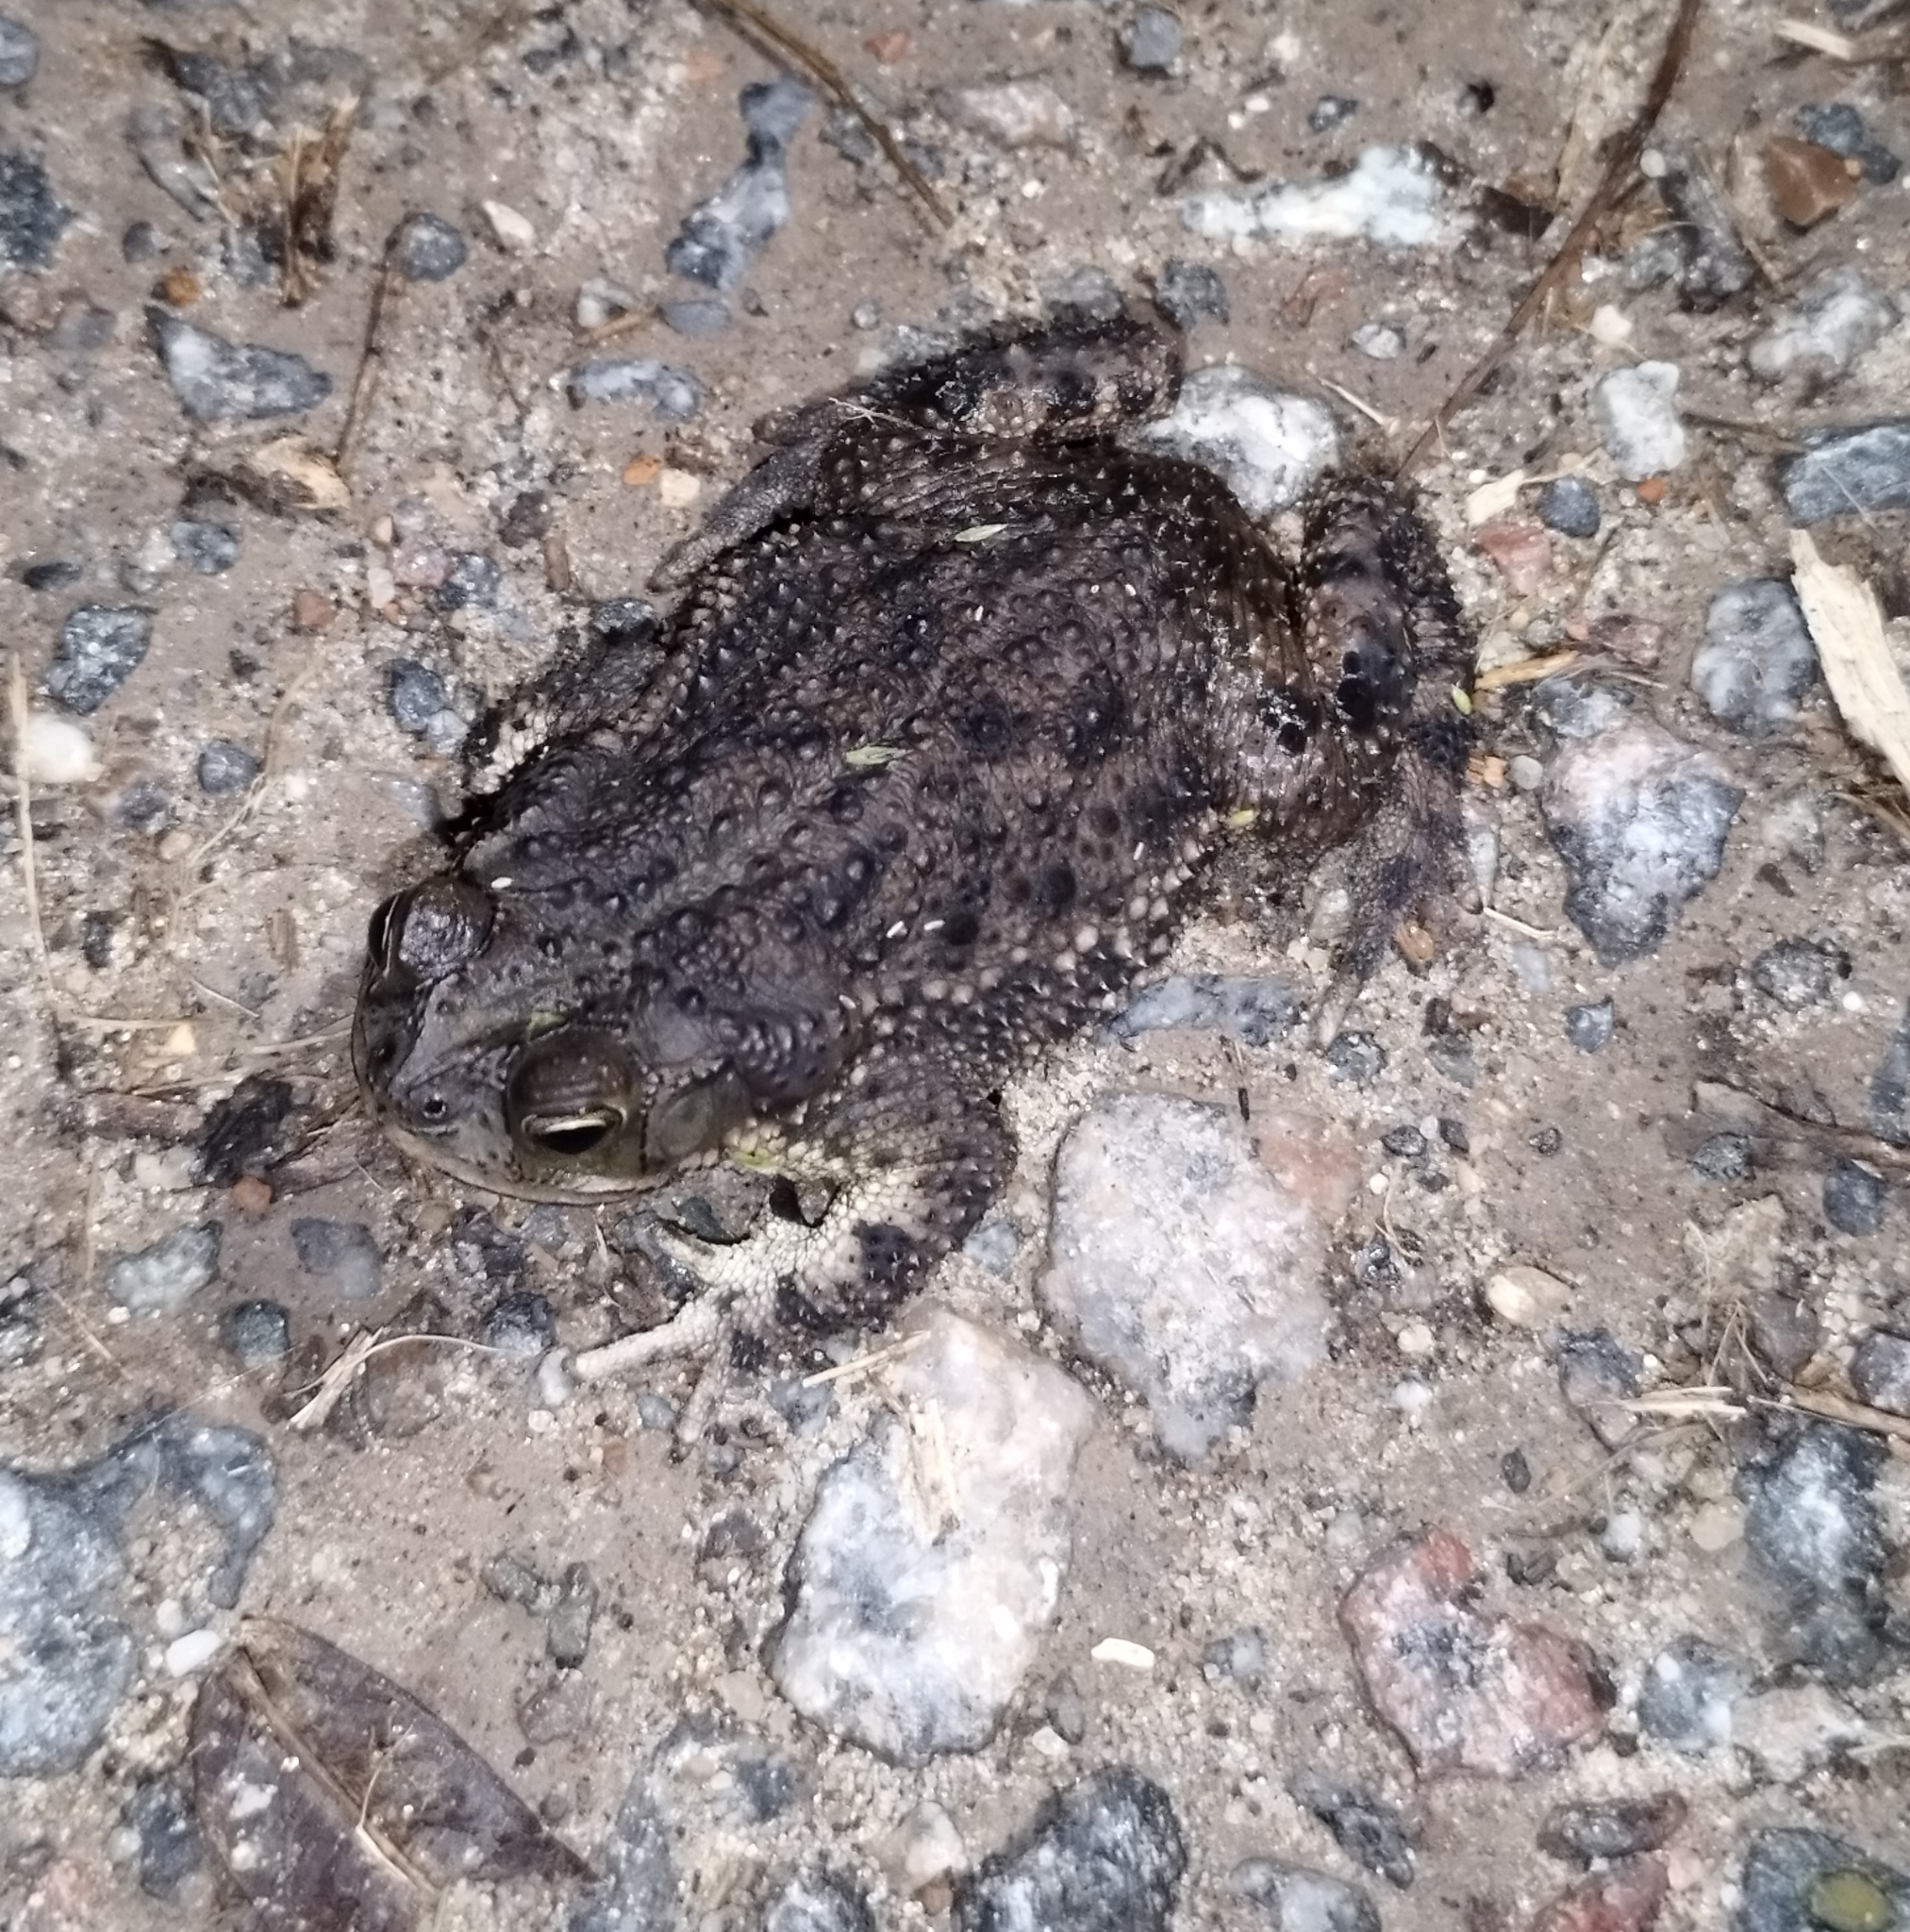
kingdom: Animalia
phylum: Chordata
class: Amphibia
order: Anura
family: Bufonidae
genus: Rhinella
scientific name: Rhinella dorbignyi
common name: D´orbigny’s toad
